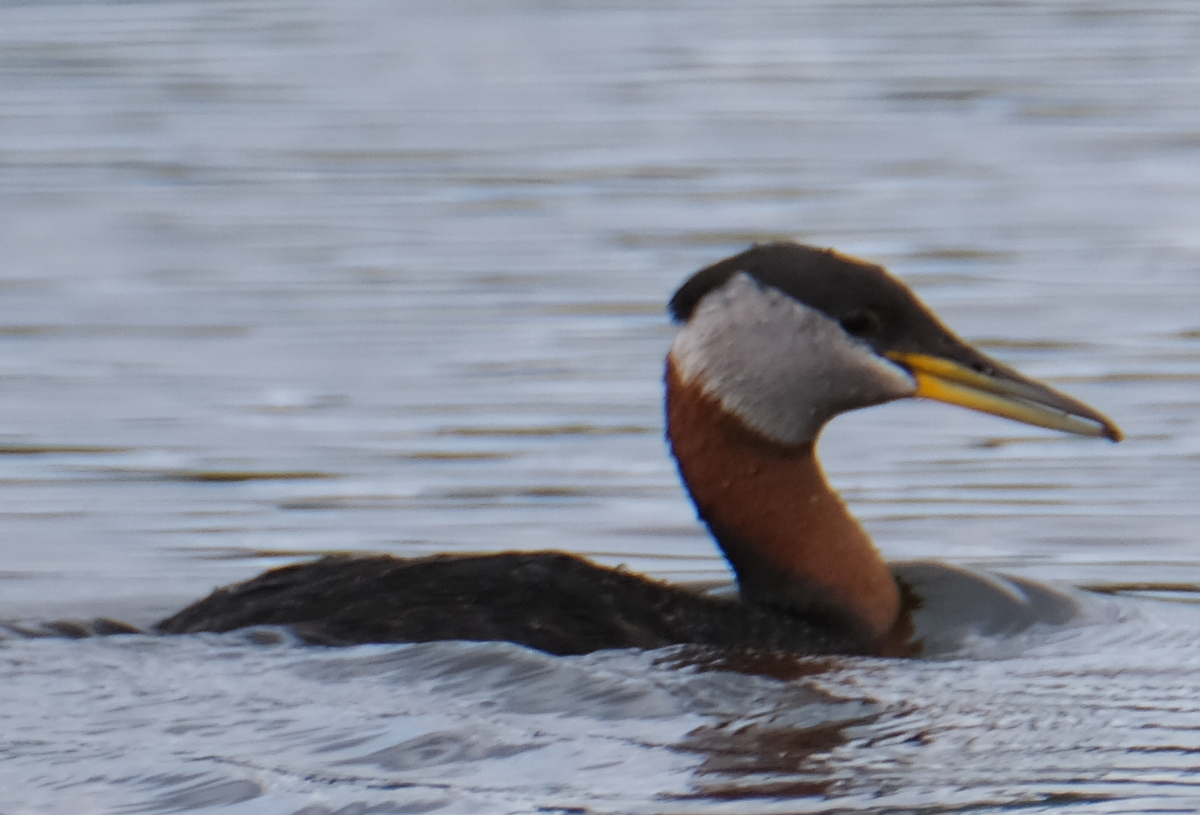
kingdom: Animalia
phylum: Chordata
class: Aves
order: Podicipediformes
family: Podicipedidae
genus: Podiceps
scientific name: Podiceps grisegena
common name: Red-necked grebe
